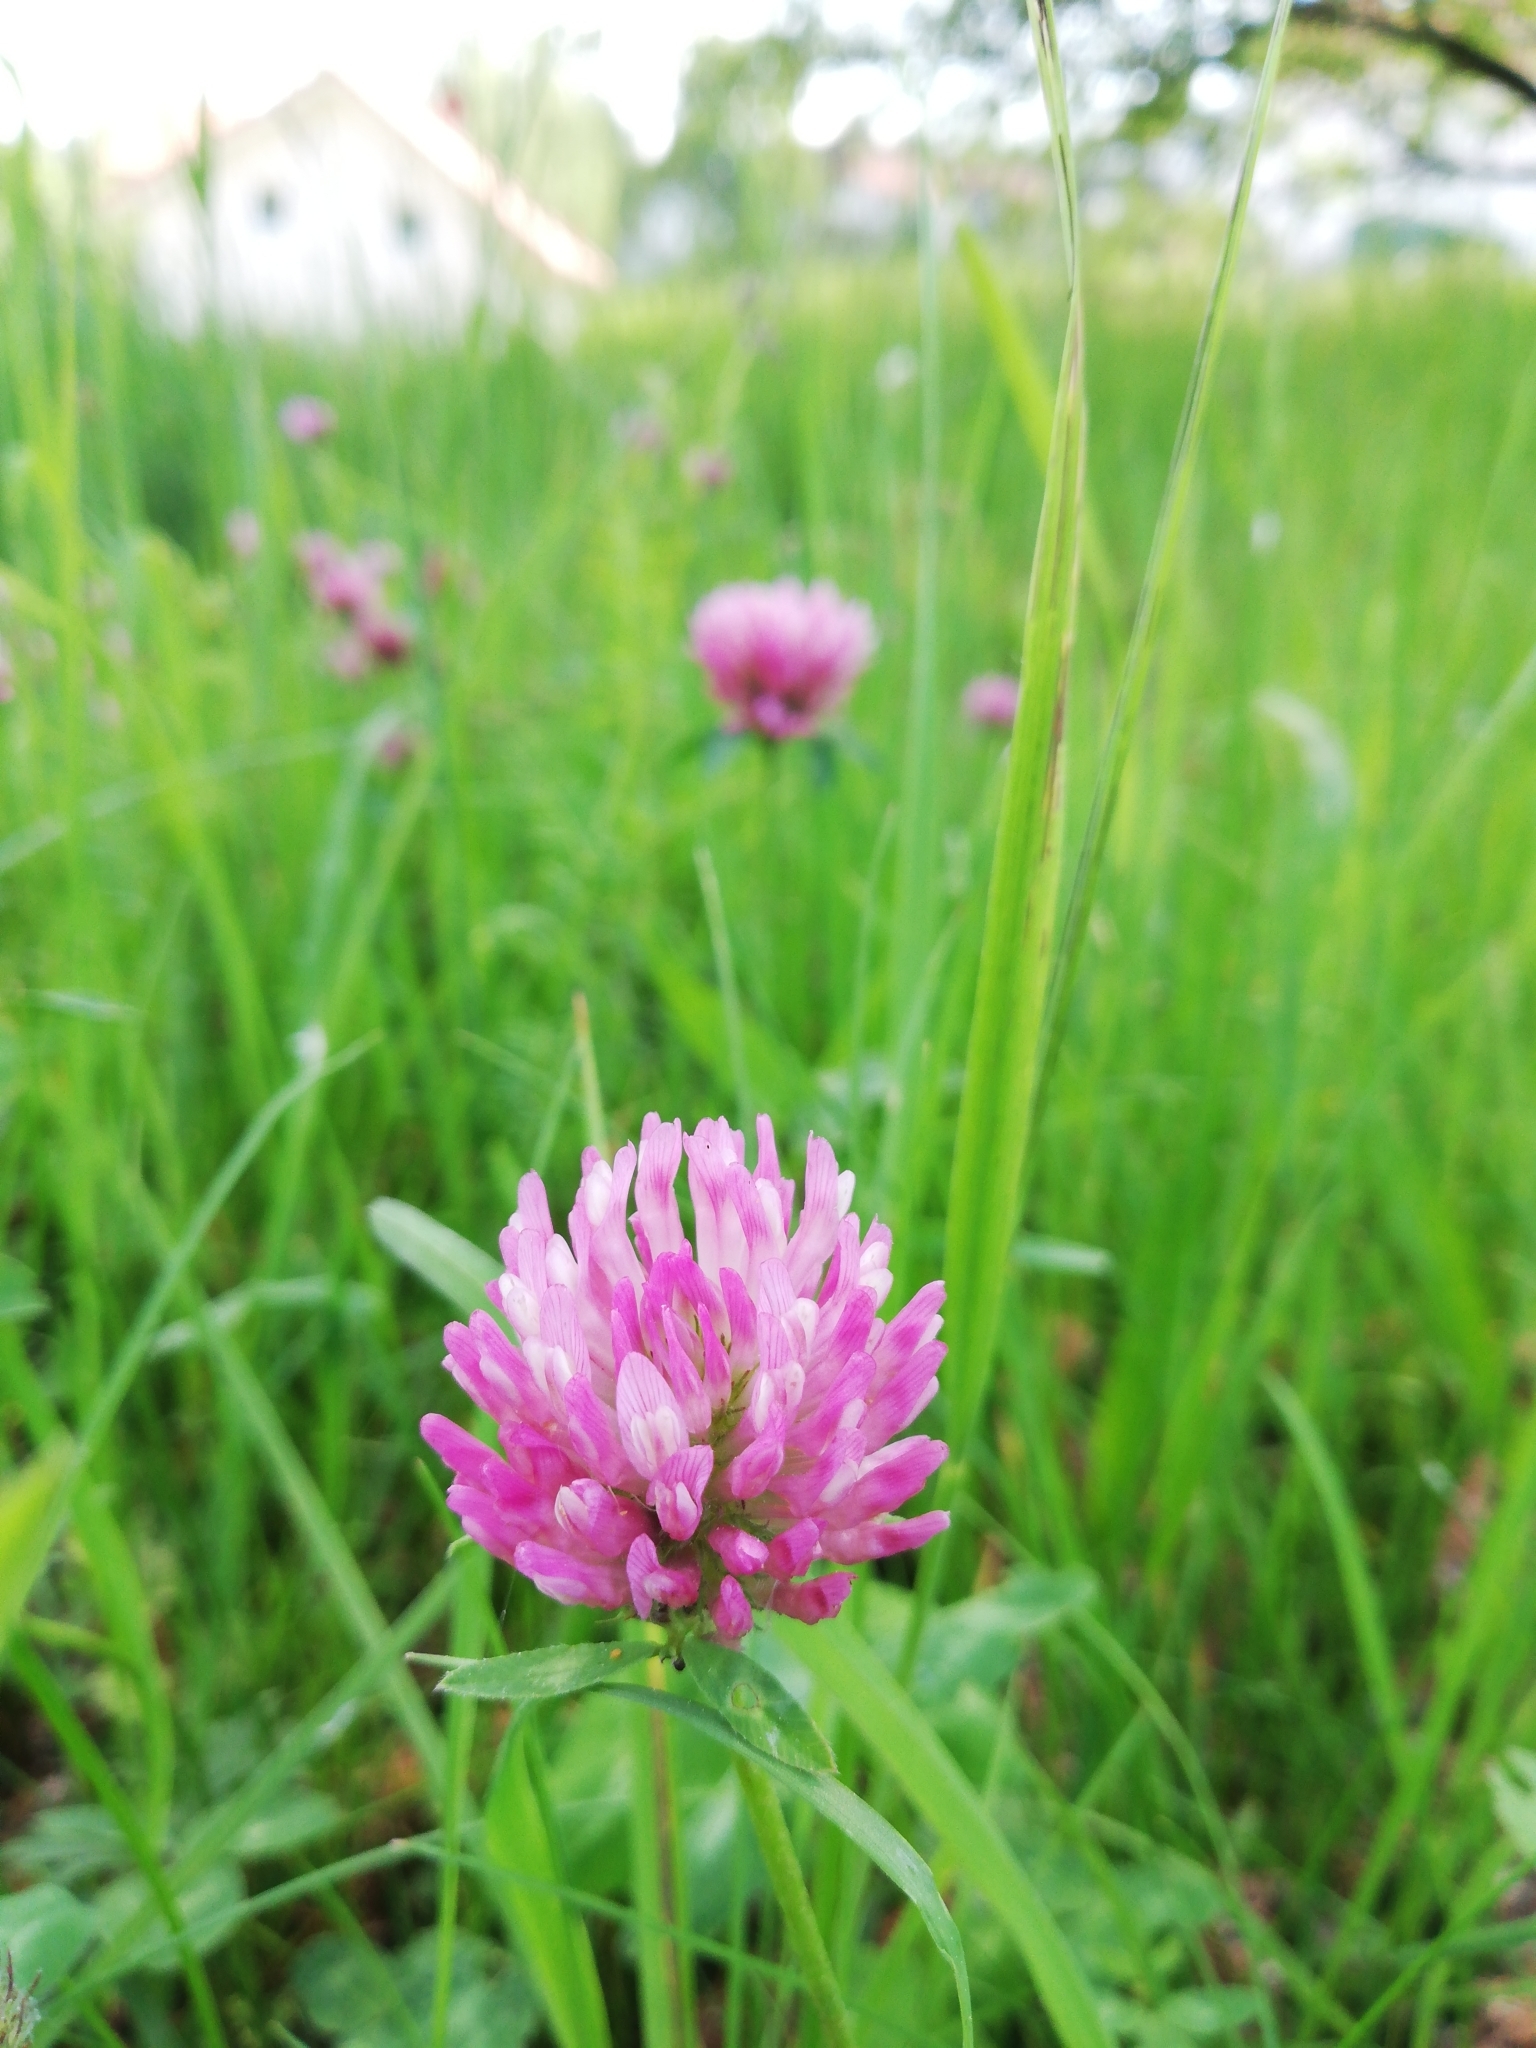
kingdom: Plantae
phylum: Tracheophyta
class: Magnoliopsida
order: Fabales
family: Fabaceae
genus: Trifolium
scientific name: Trifolium pratense
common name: Red clover
